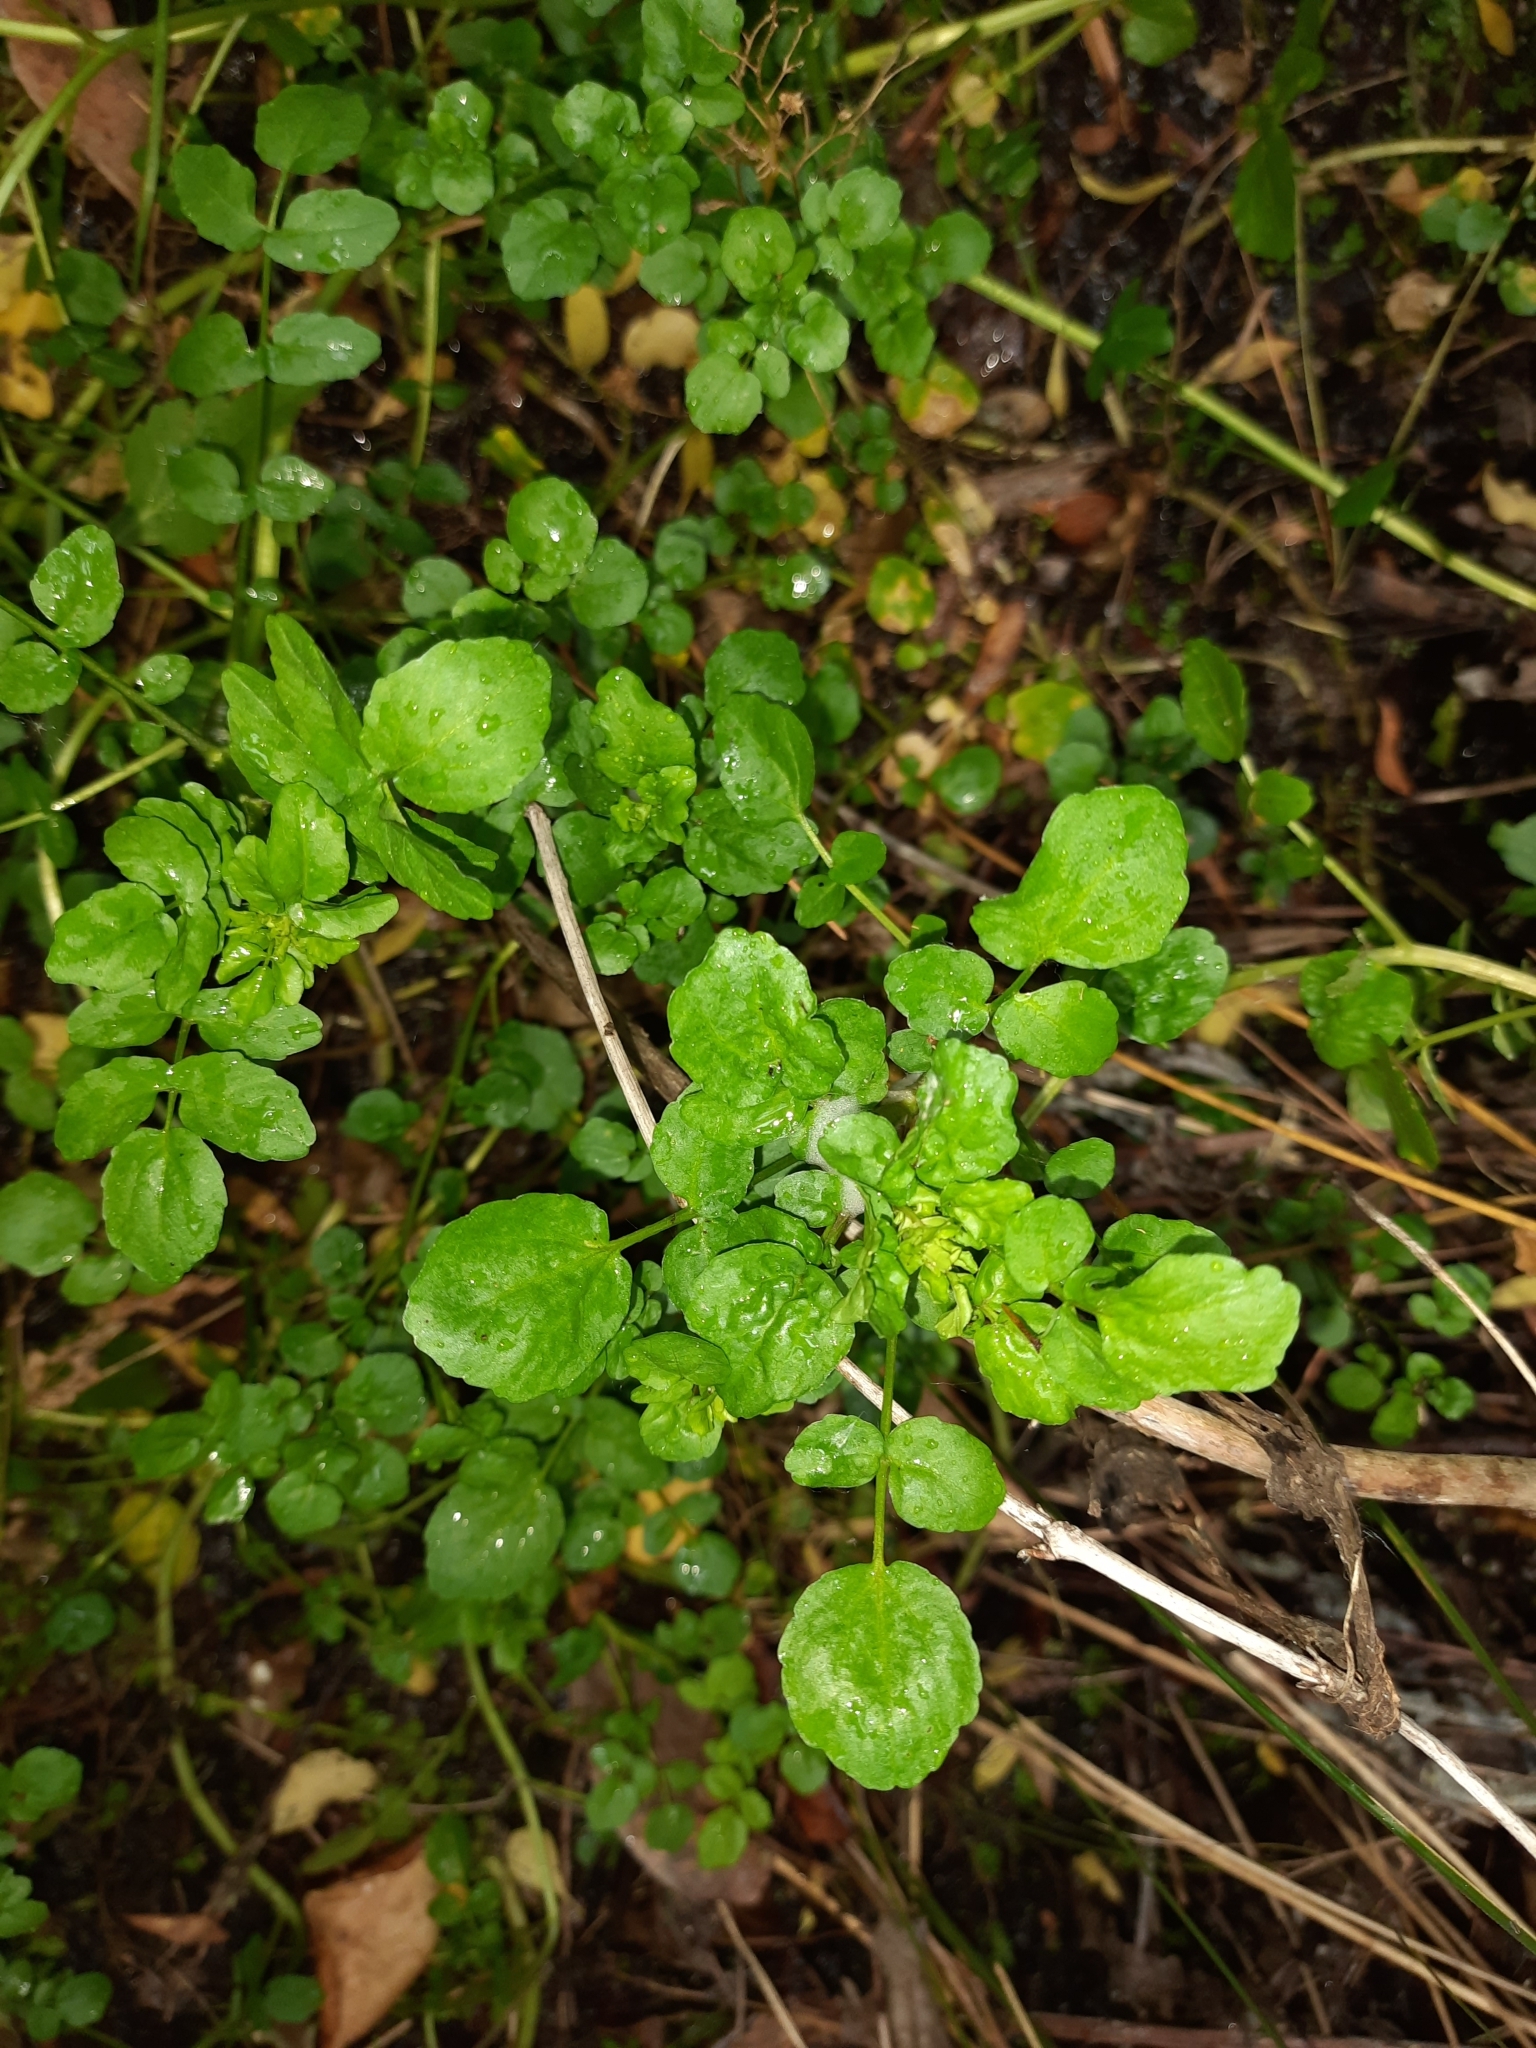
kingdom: Plantae
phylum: Tracheophyta
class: Magnoliopsida
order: Brassicales
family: Brassicaceae
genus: Nasturtium
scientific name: Nasturtium officinale
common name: Watercress
